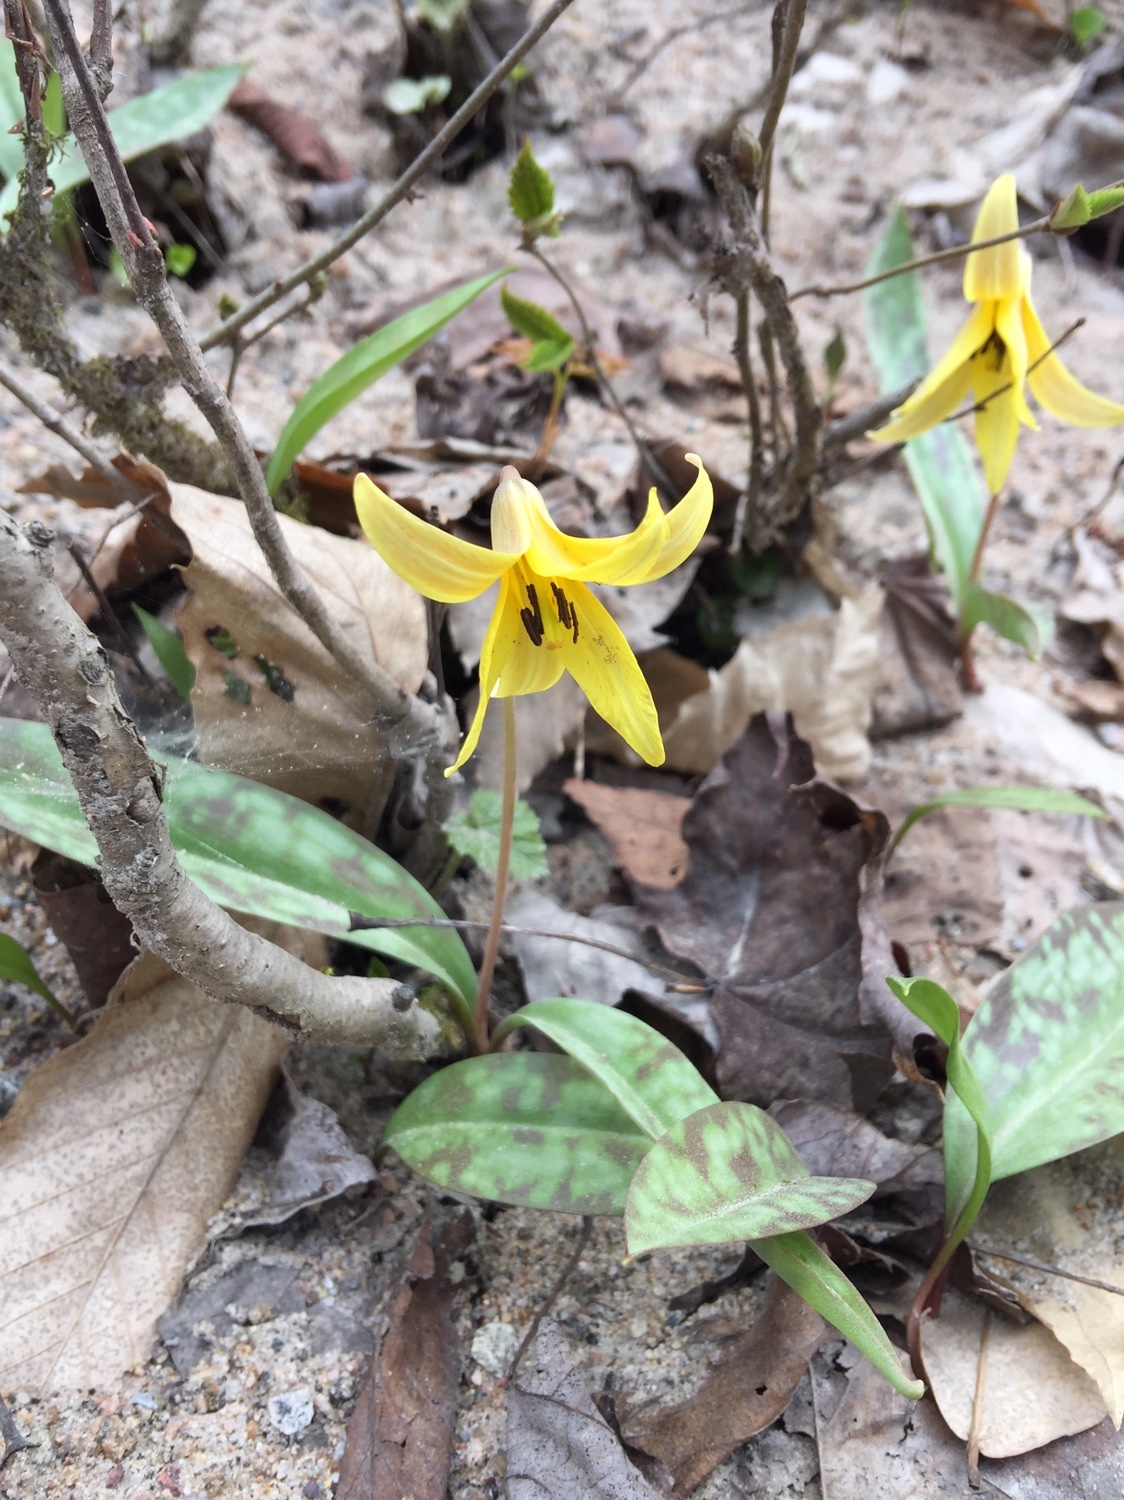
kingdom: Plantae
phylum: Tracheophyta
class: Liliopsida
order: Liliales
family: Liliaceae
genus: Erythronium
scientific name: Erythronium americanum
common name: Yellow adder's-tongue
